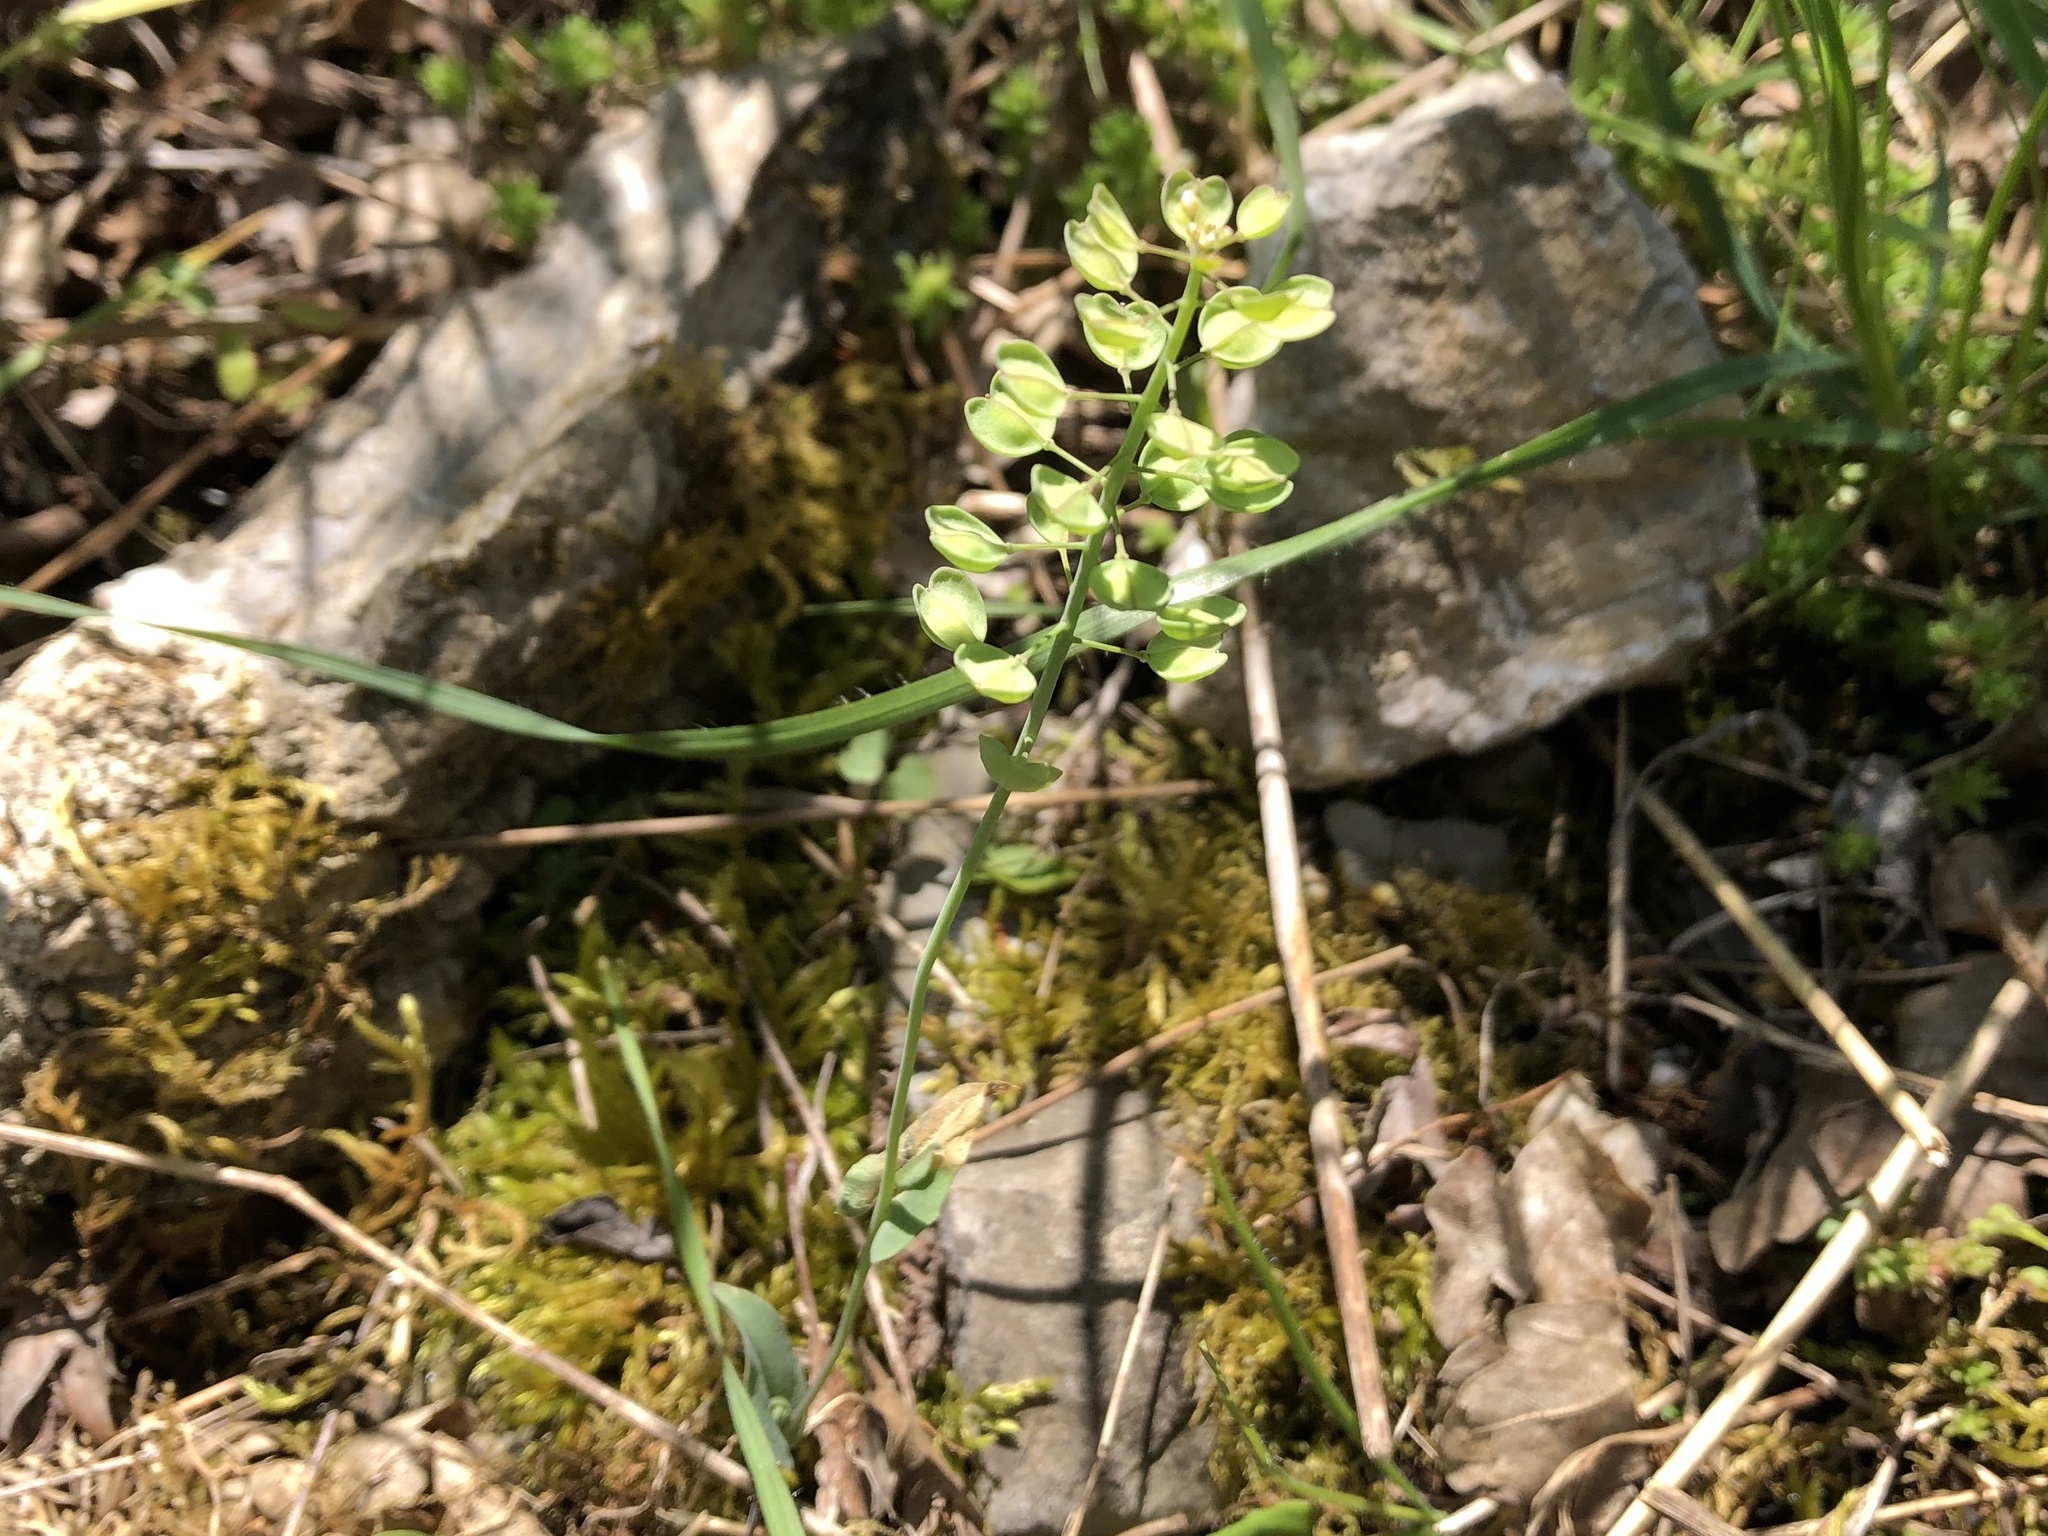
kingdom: Plantae
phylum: Tracheophyta
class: Magnoliopsida
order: Brassicales
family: Brassicaceae
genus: Noccaea
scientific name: Noccaea perfoliata
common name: Perfoliate pennycress
